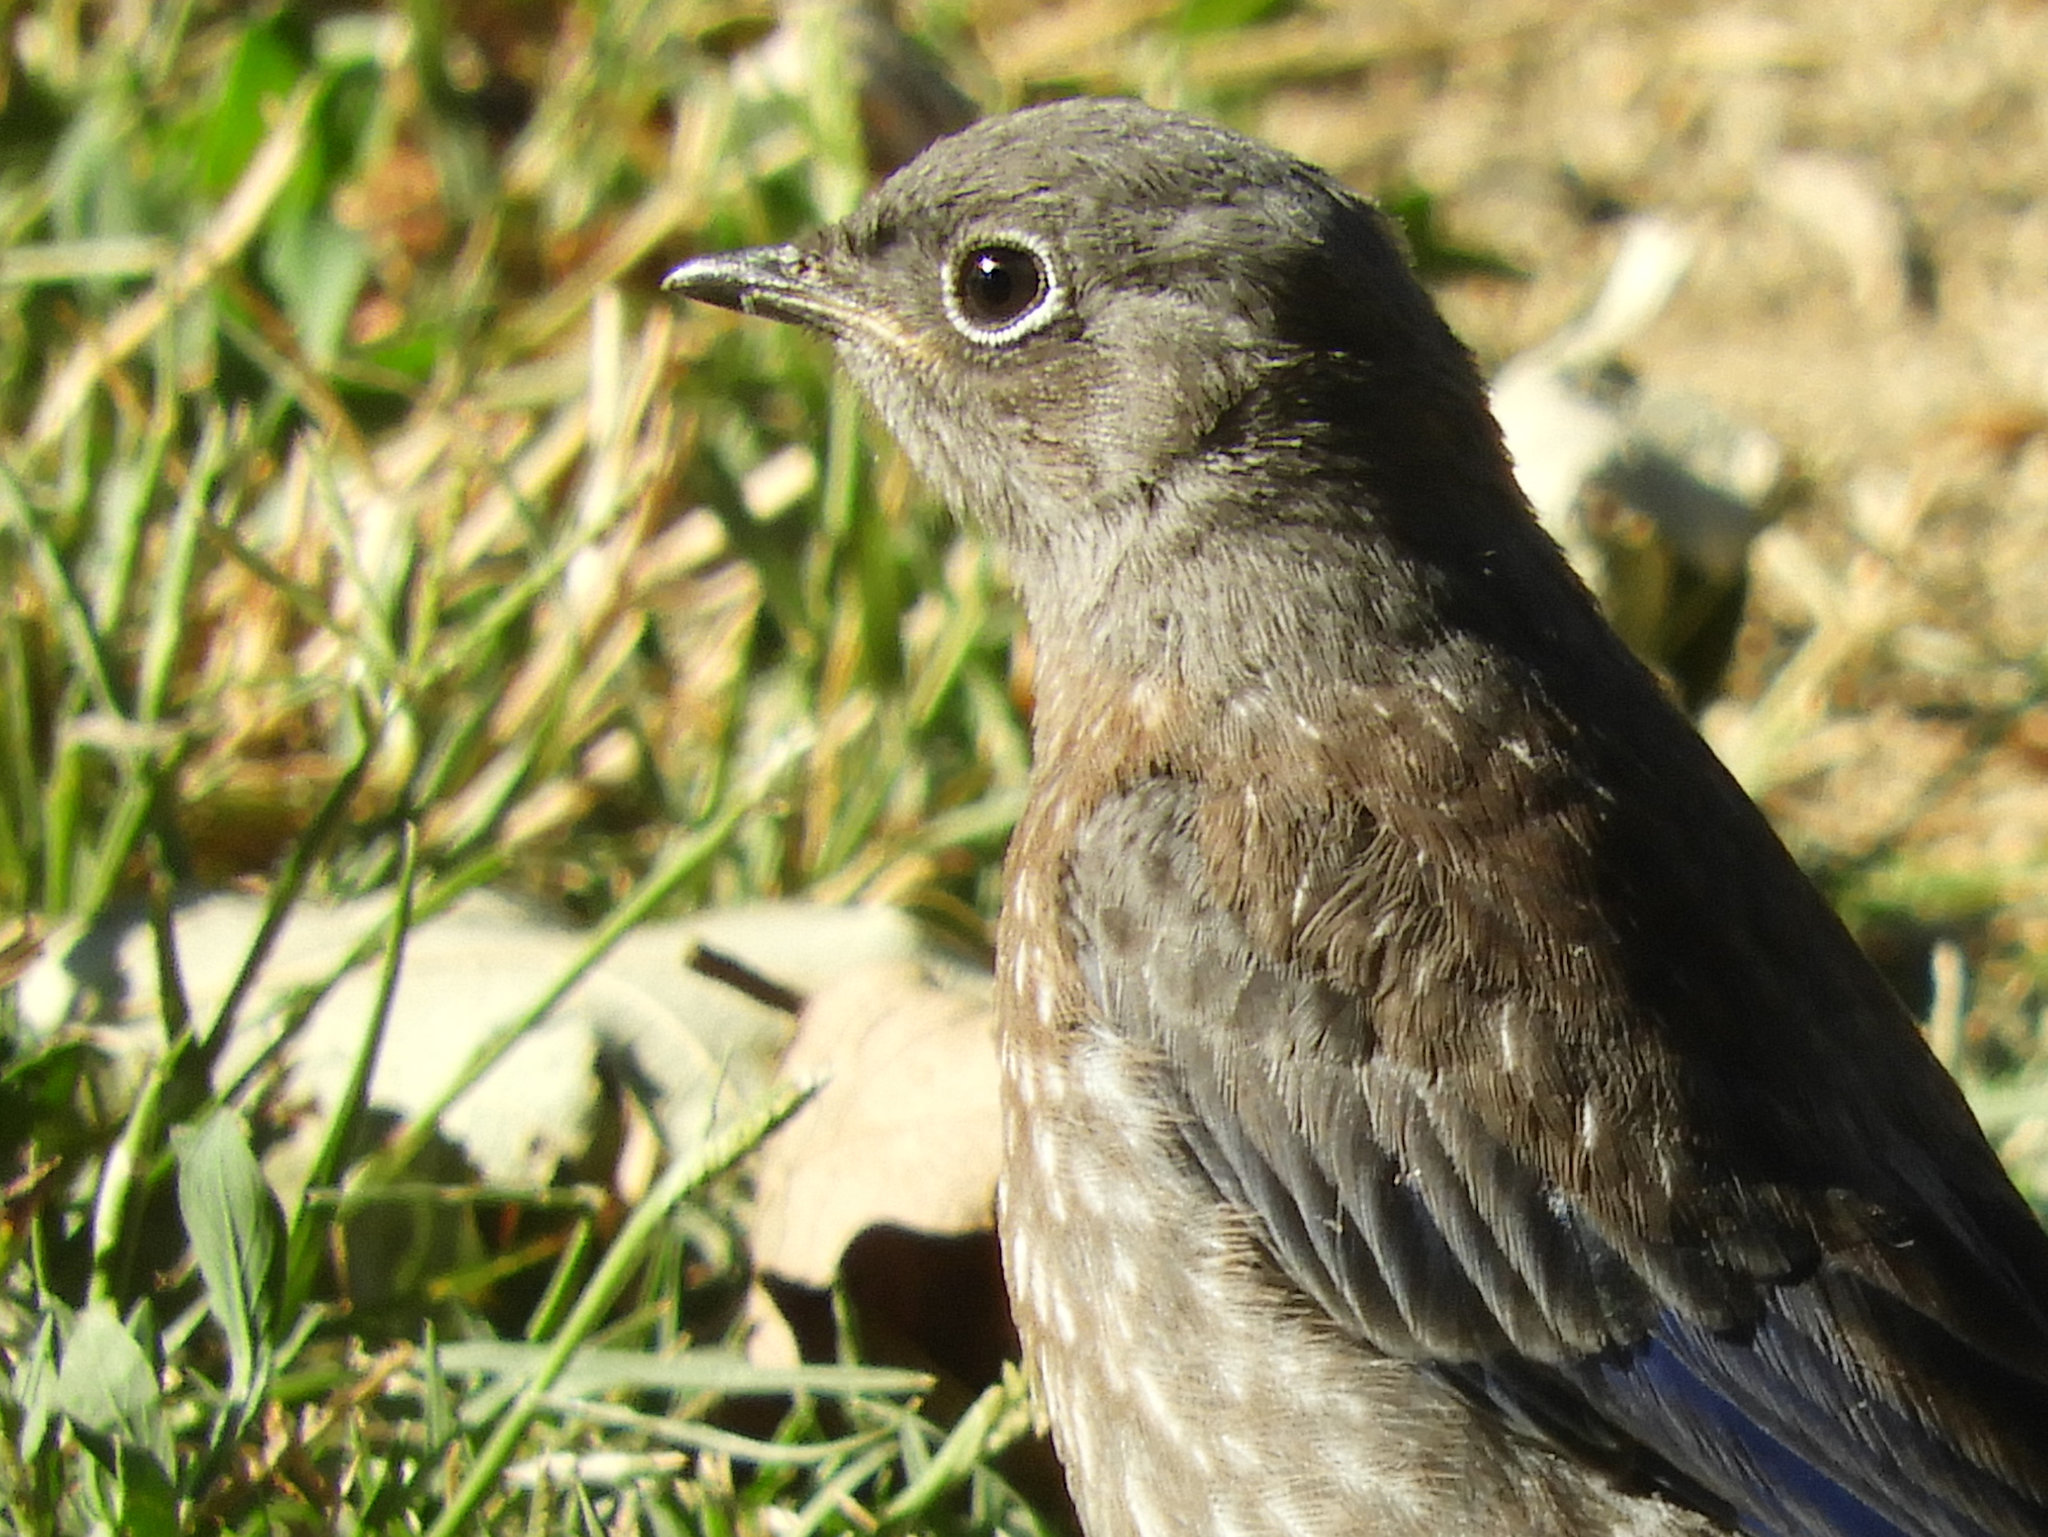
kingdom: Animalia
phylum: Chordata
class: Aves
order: Passeriformes
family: Turdidae
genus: Sialia
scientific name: Sialia mexicana
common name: Western bluebird
